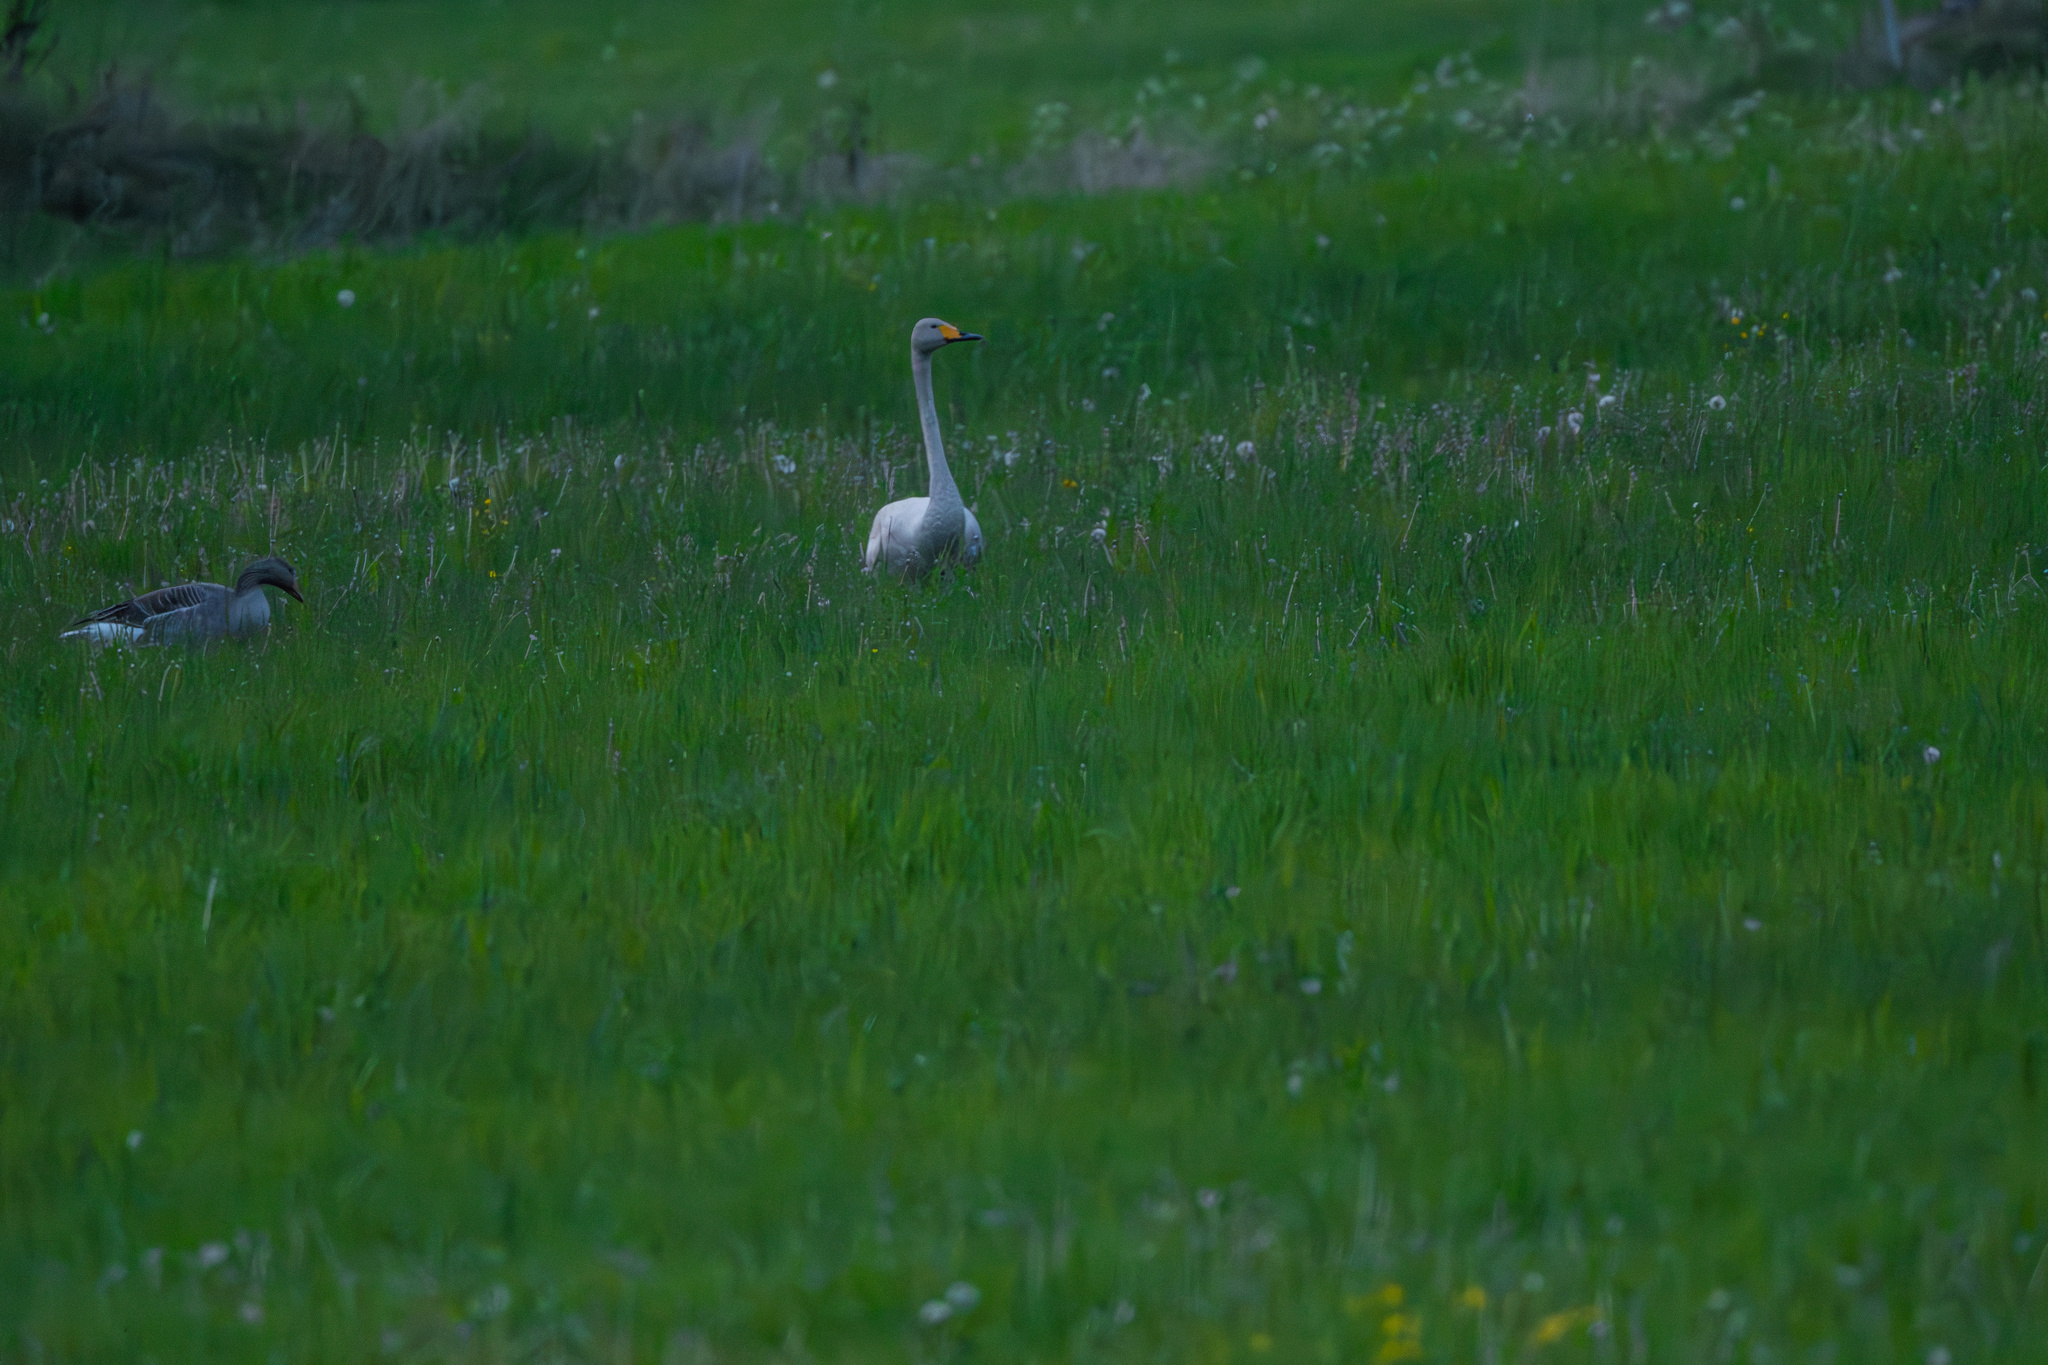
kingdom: Animalia
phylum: Chordata
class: Aves
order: Anseriformes
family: Anatidae
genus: Cygnus
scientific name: Cygnus cygnus
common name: Whooper swan
